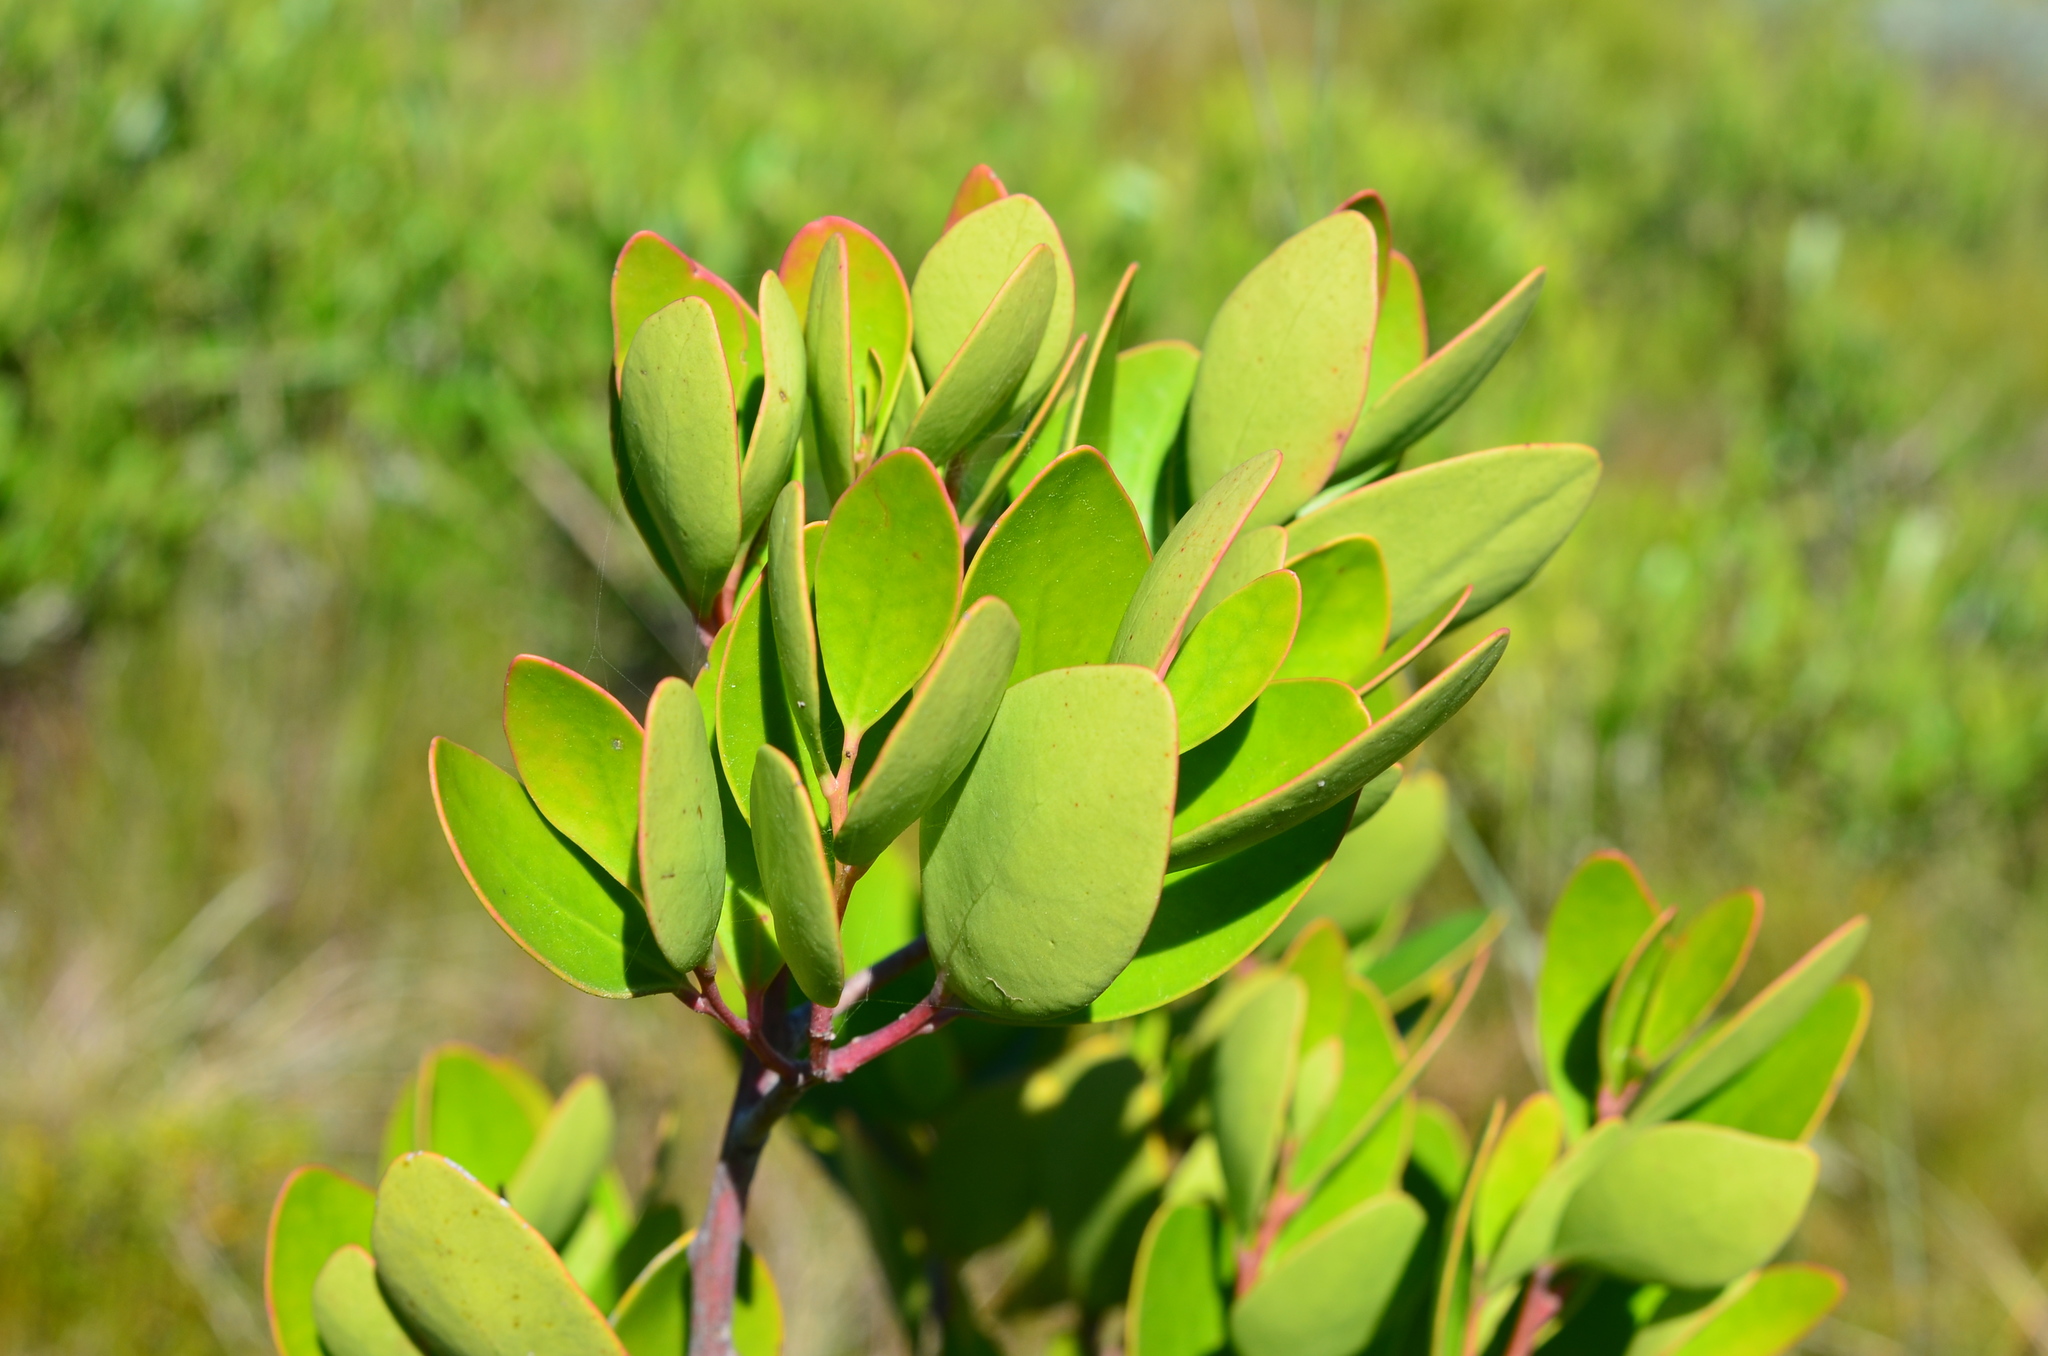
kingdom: Plantae
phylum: Tracheophyta
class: Magnoliopsida
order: Celastrales
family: Celastraceae
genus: Pterocelastrus
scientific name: Pterocelastrus tricuspidatus
